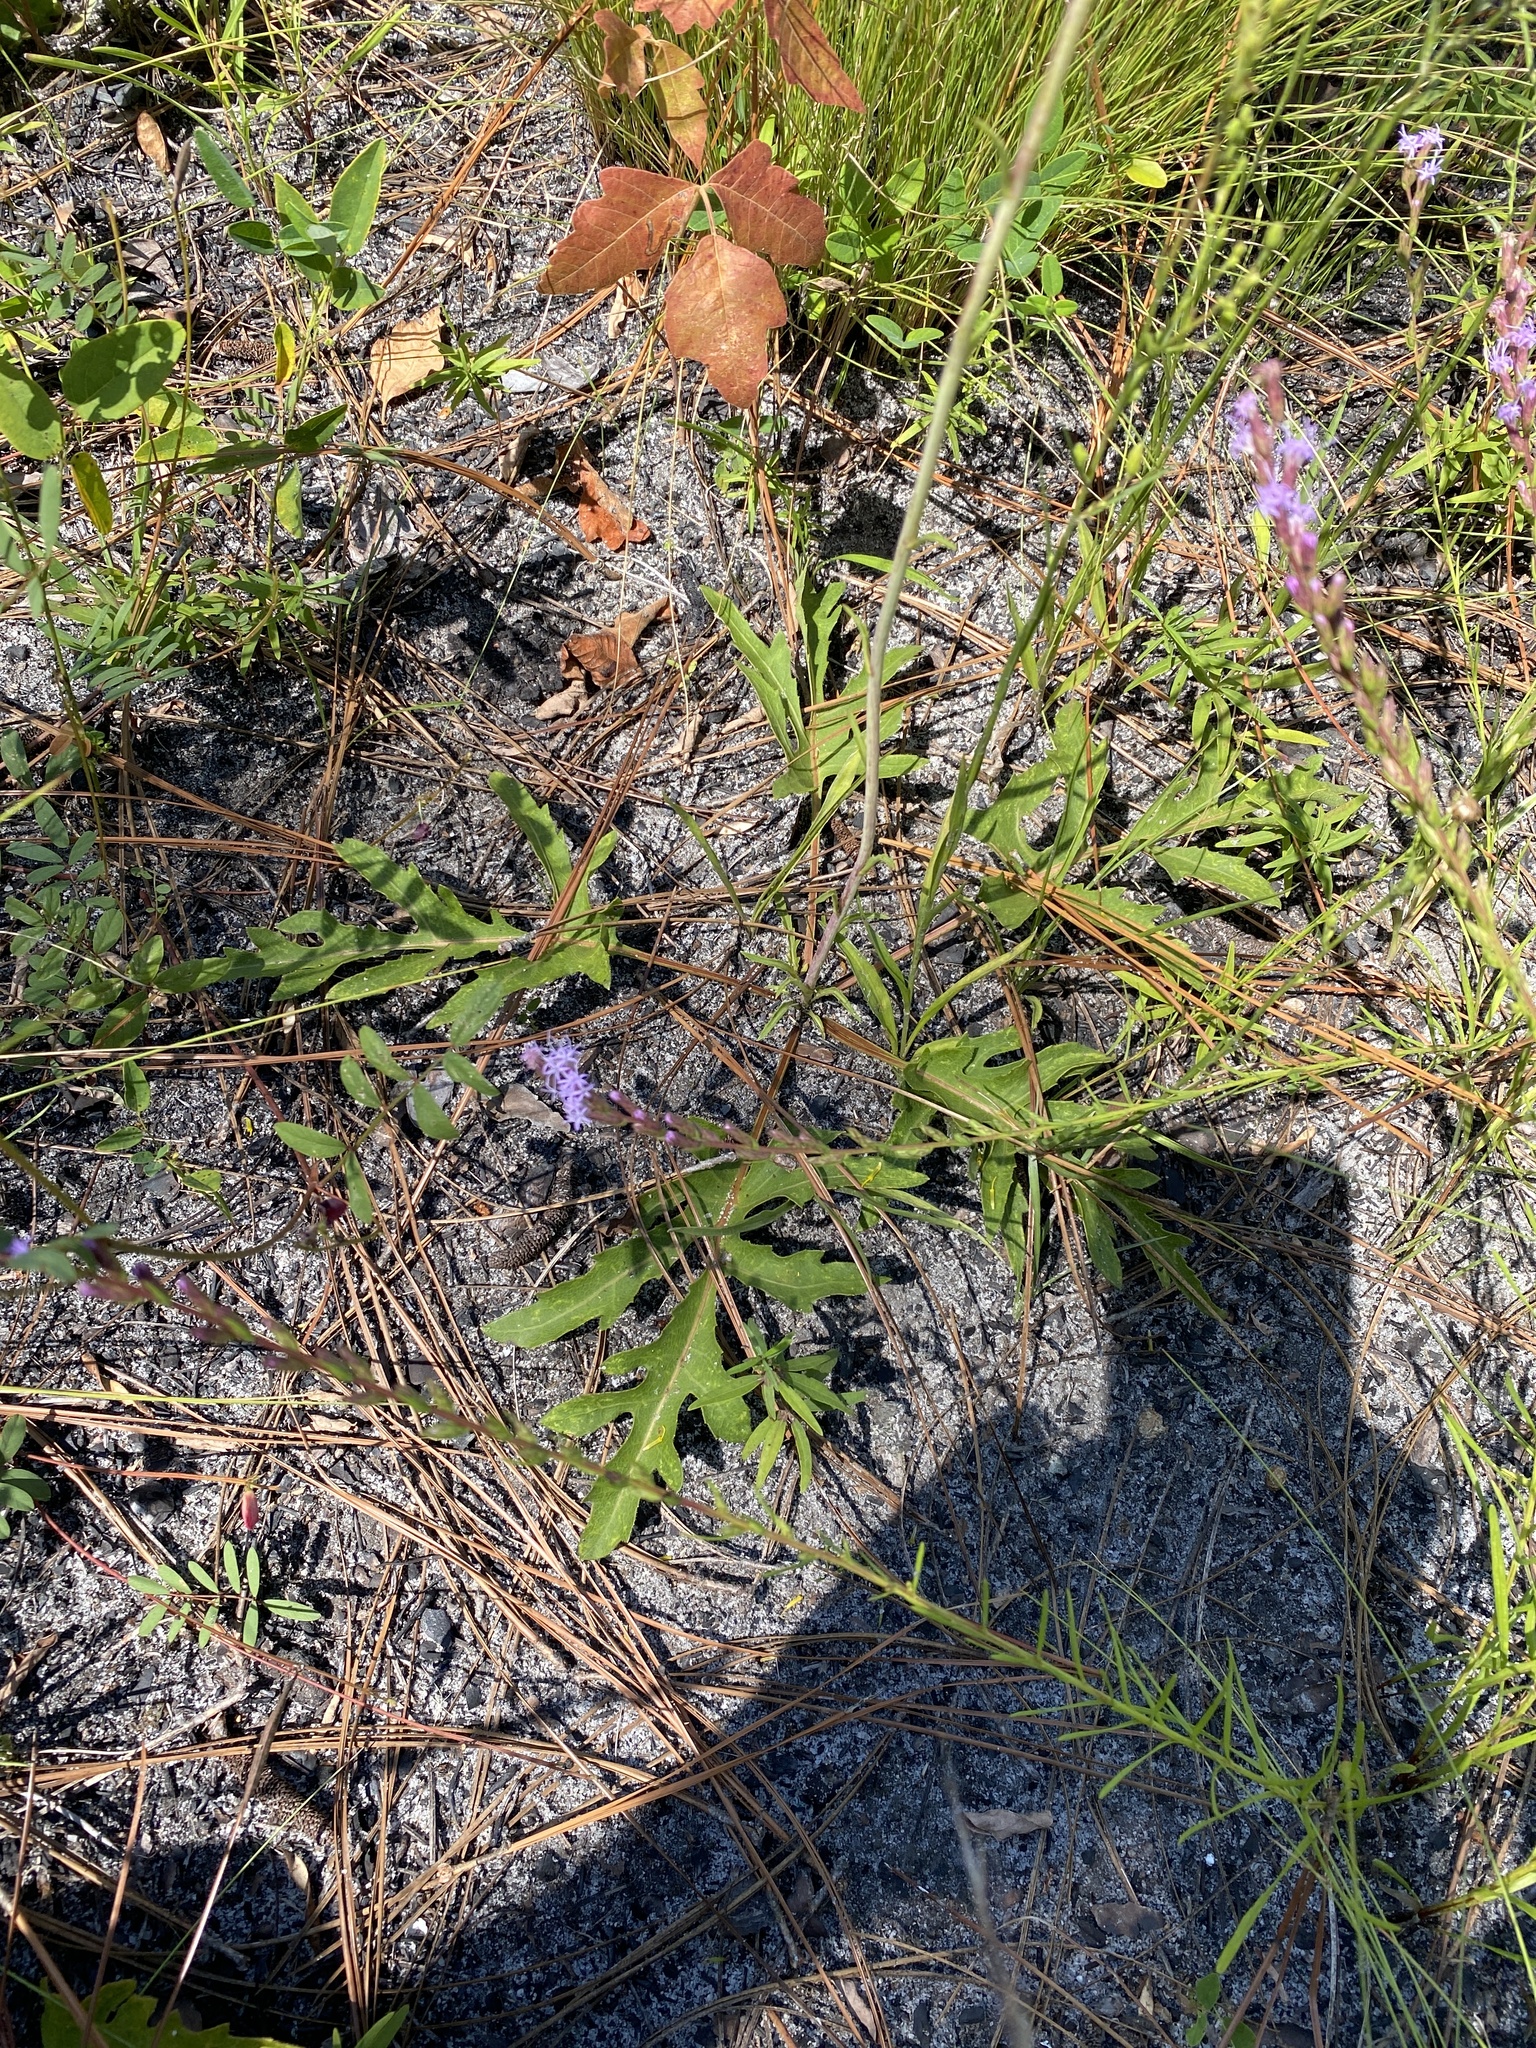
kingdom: Plantae
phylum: Tracheophyta
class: Magnoliopsida
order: Asterales
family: Asteraceae
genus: Silphium
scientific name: Silphium compositum
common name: Lesser basal-leaf rosinweed
